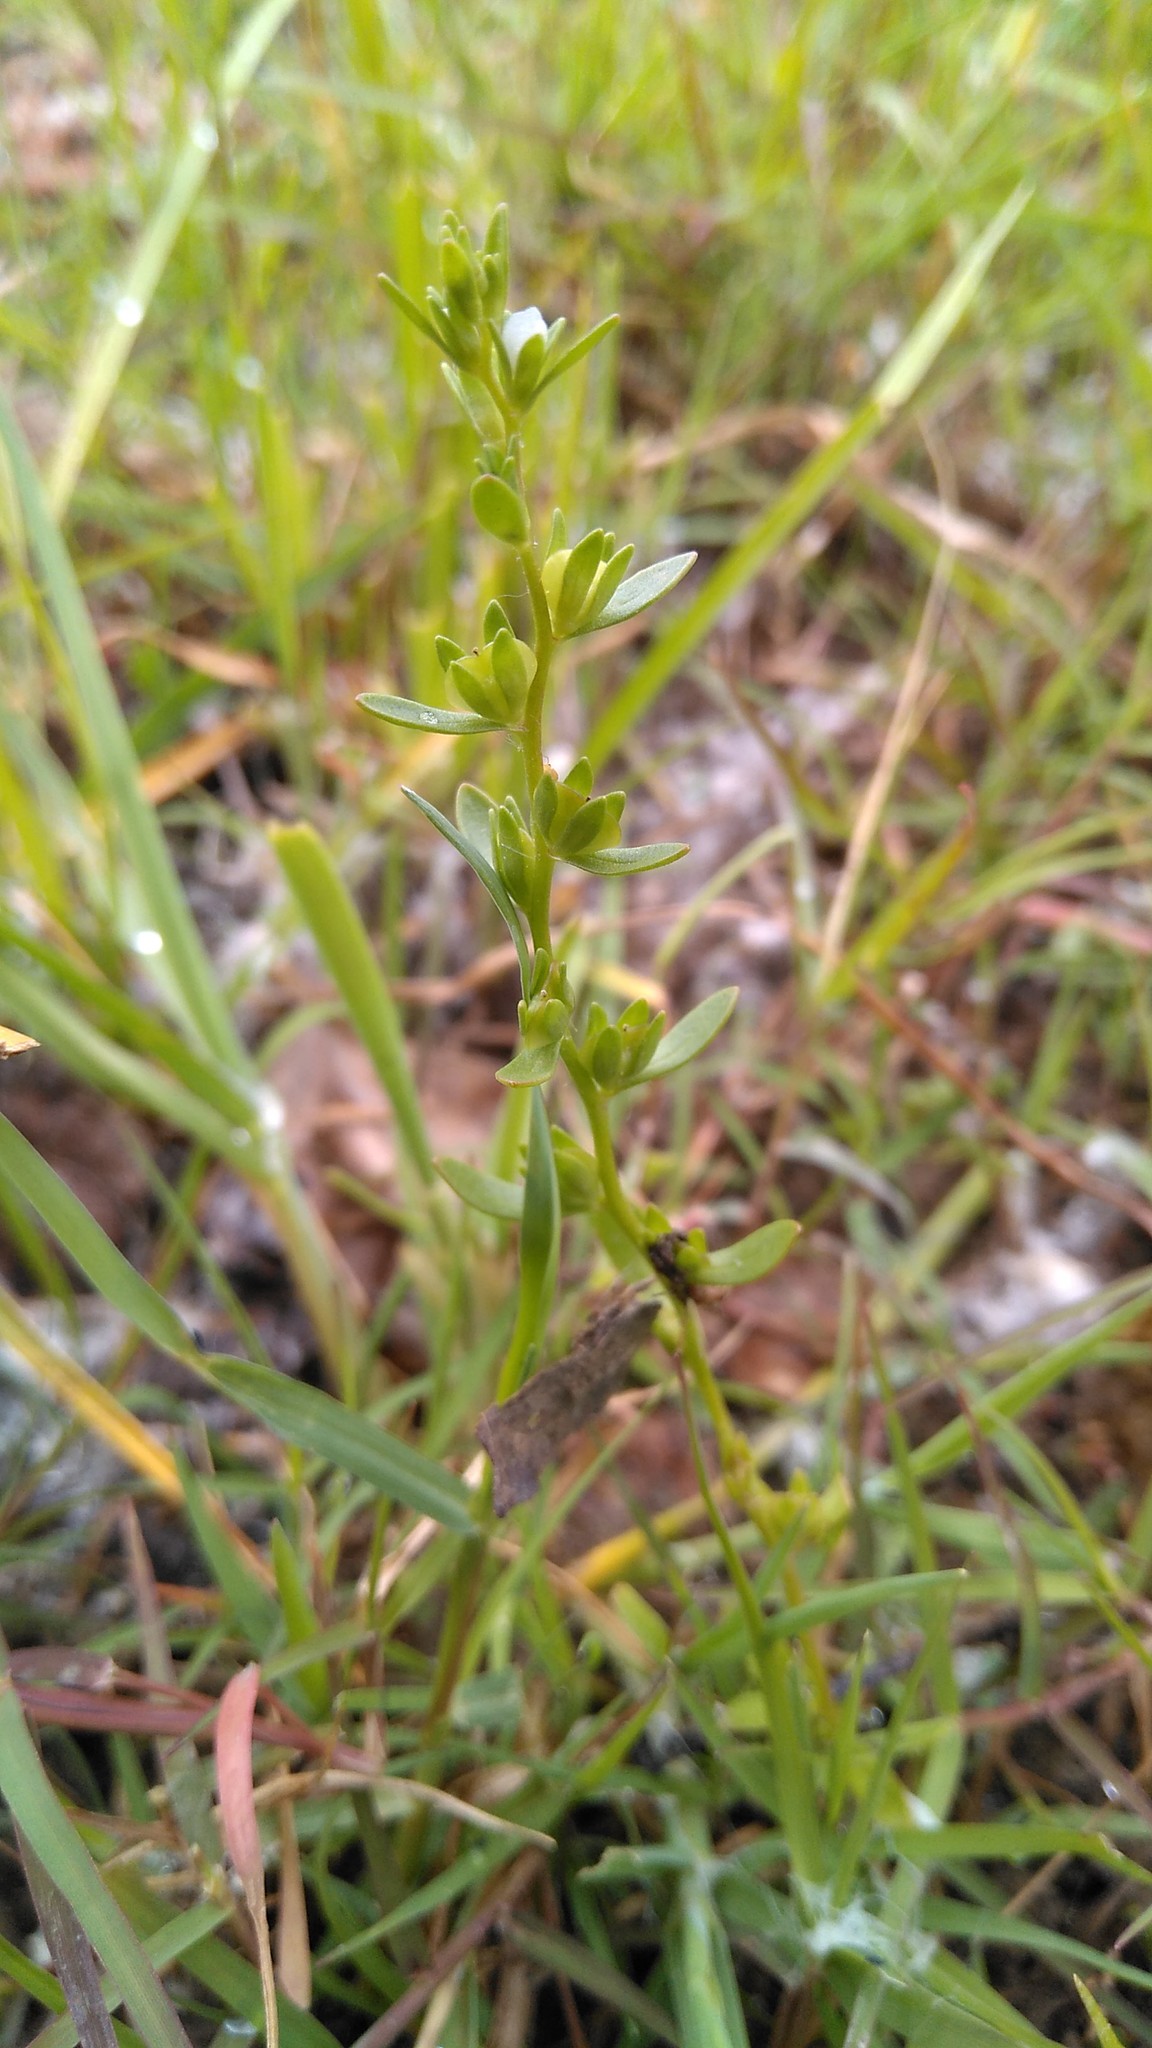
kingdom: Plantae
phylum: Tracheophyta
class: Magnoliopsida
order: Lamiales
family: Plantaginaceae
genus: Veronica
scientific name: Veronica peregrina
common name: Neckweed
